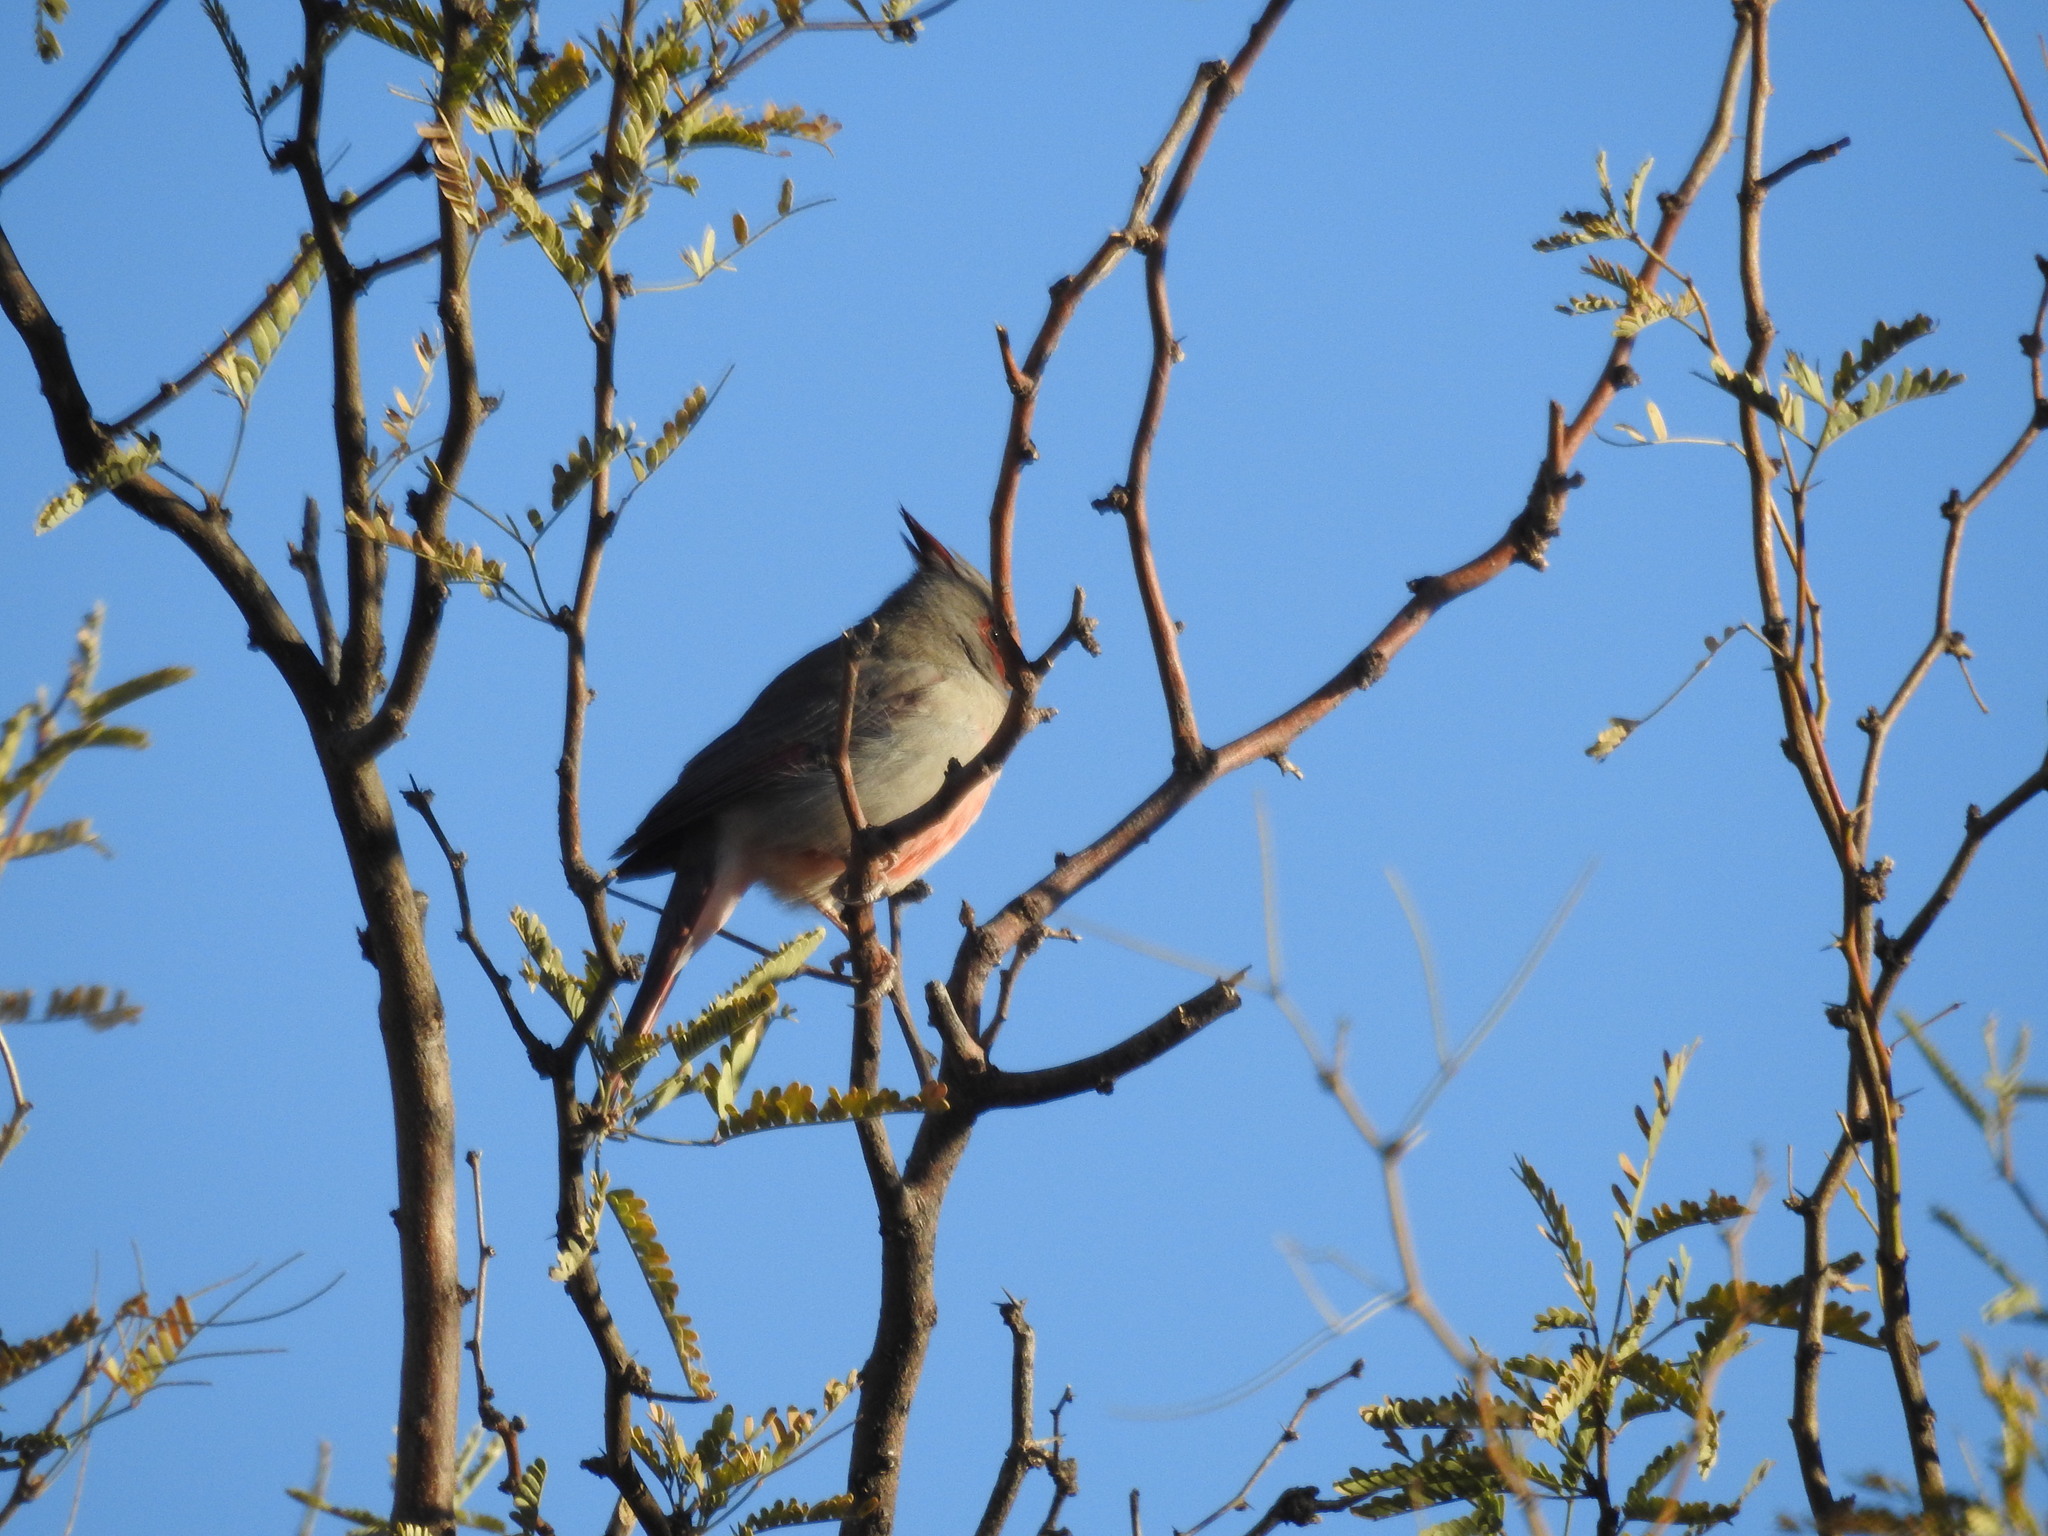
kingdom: Animalia
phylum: Chordata
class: Aves
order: Passeriformes
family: Cardinalidae
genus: Cardinalis
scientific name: Cardinalis sinuatus
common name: Pyrrhuloxia
